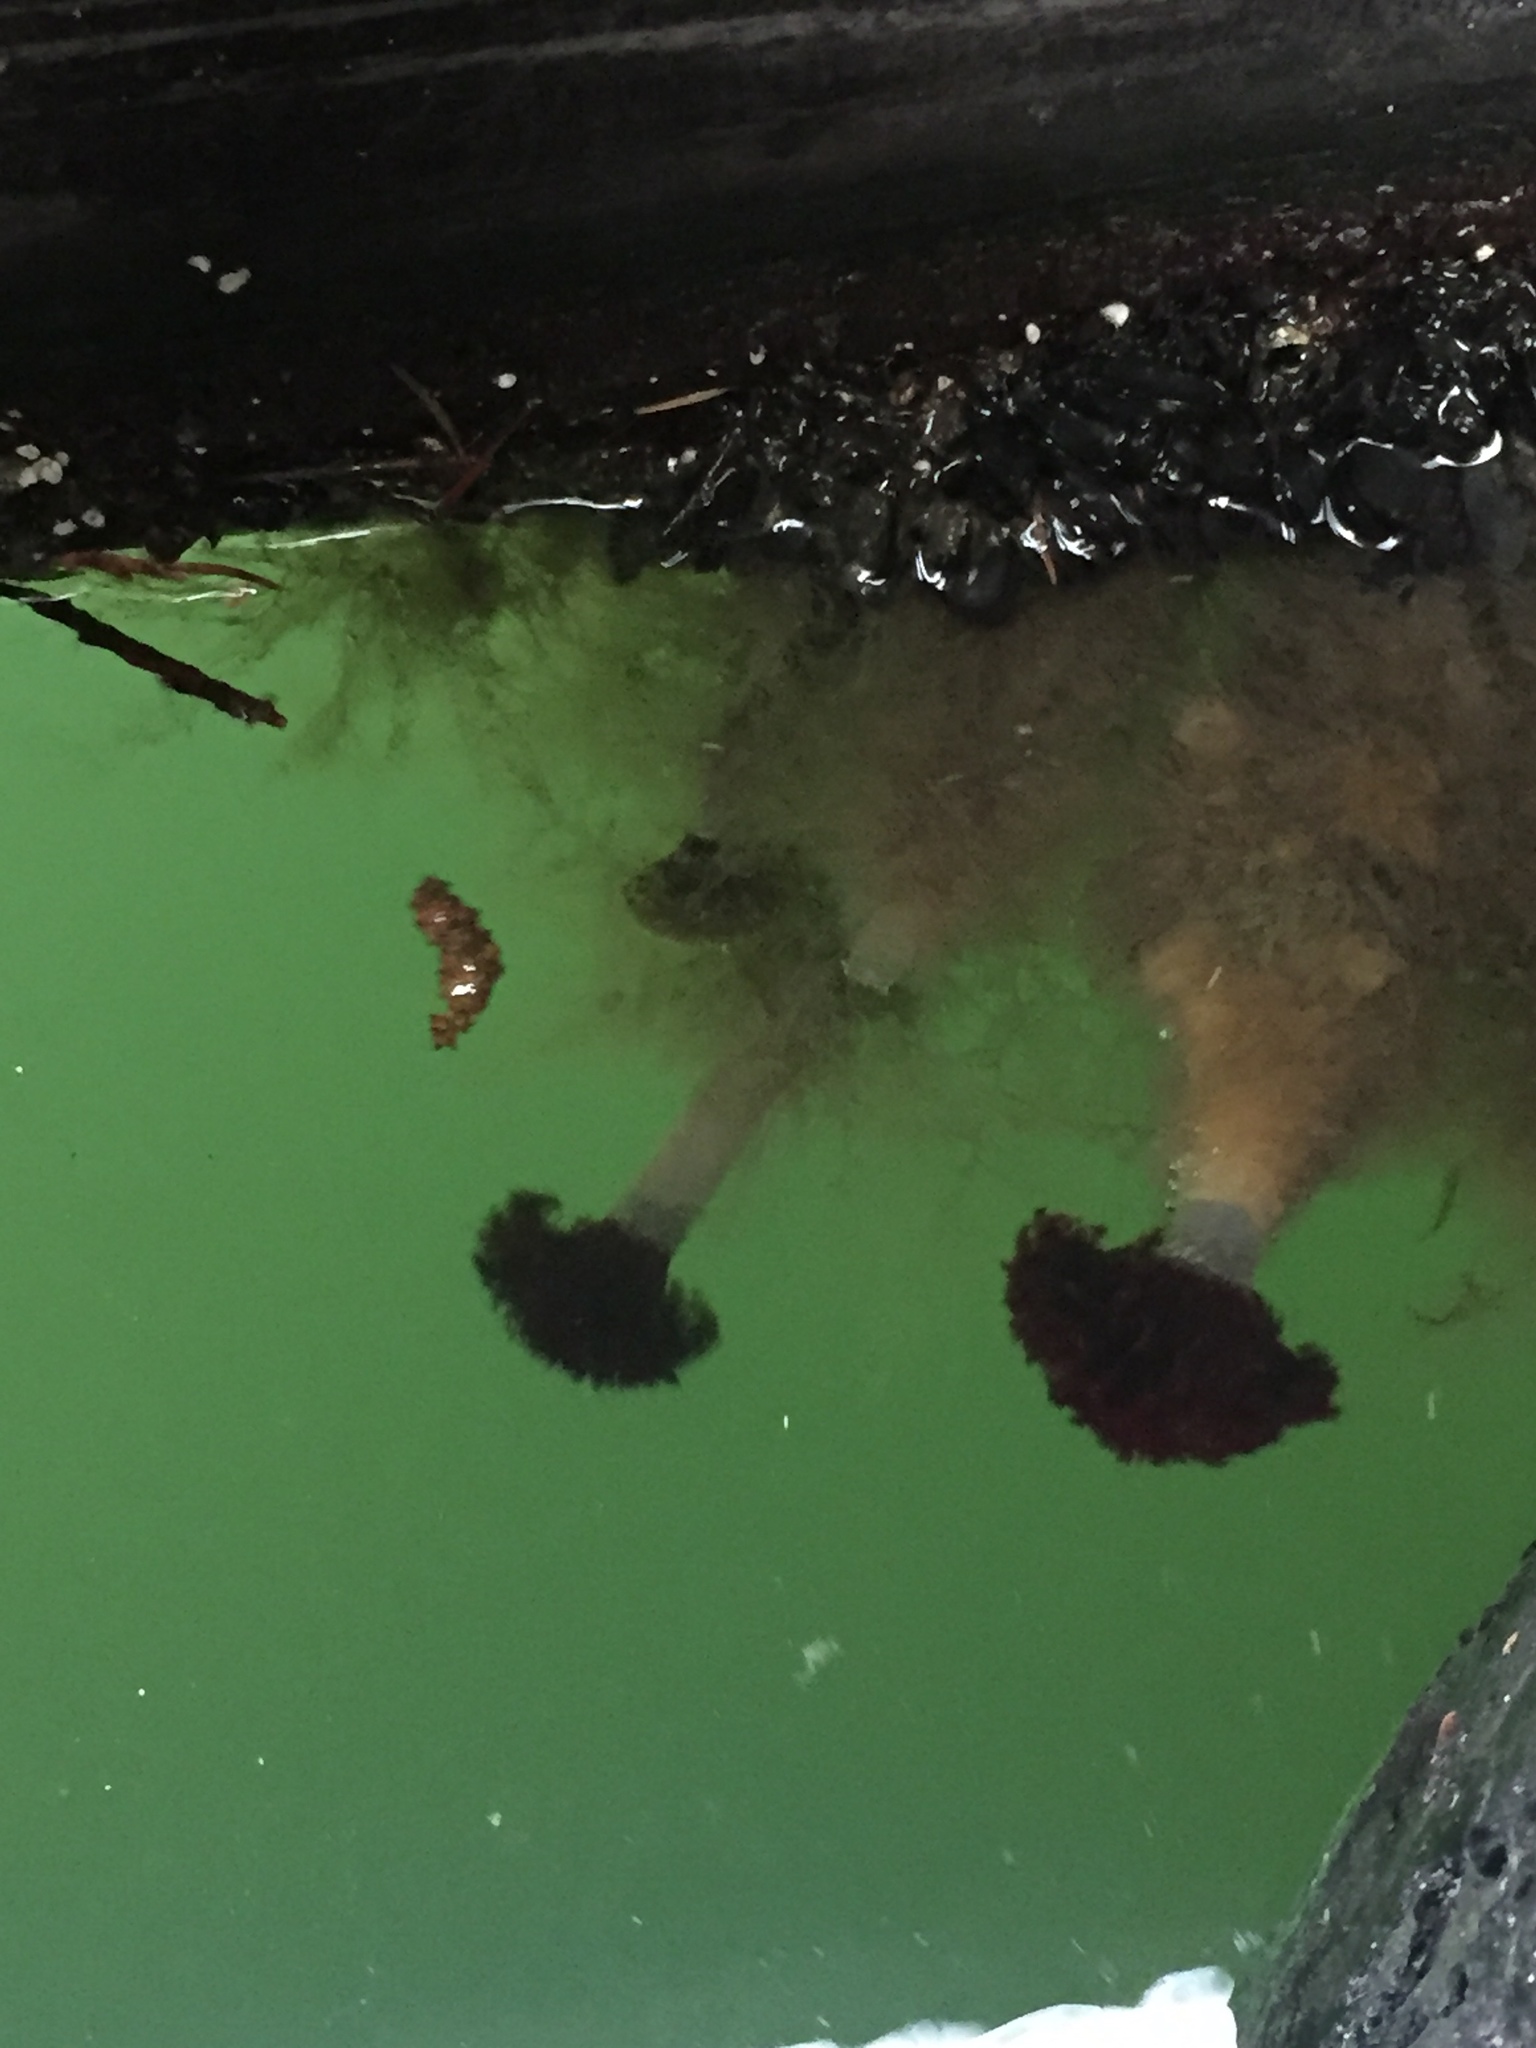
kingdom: Animalia
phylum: Annelida
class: Polychaeta
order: Sabellida
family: Sabellidae
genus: Eudistylia
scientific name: Eudistylia vancouveri
